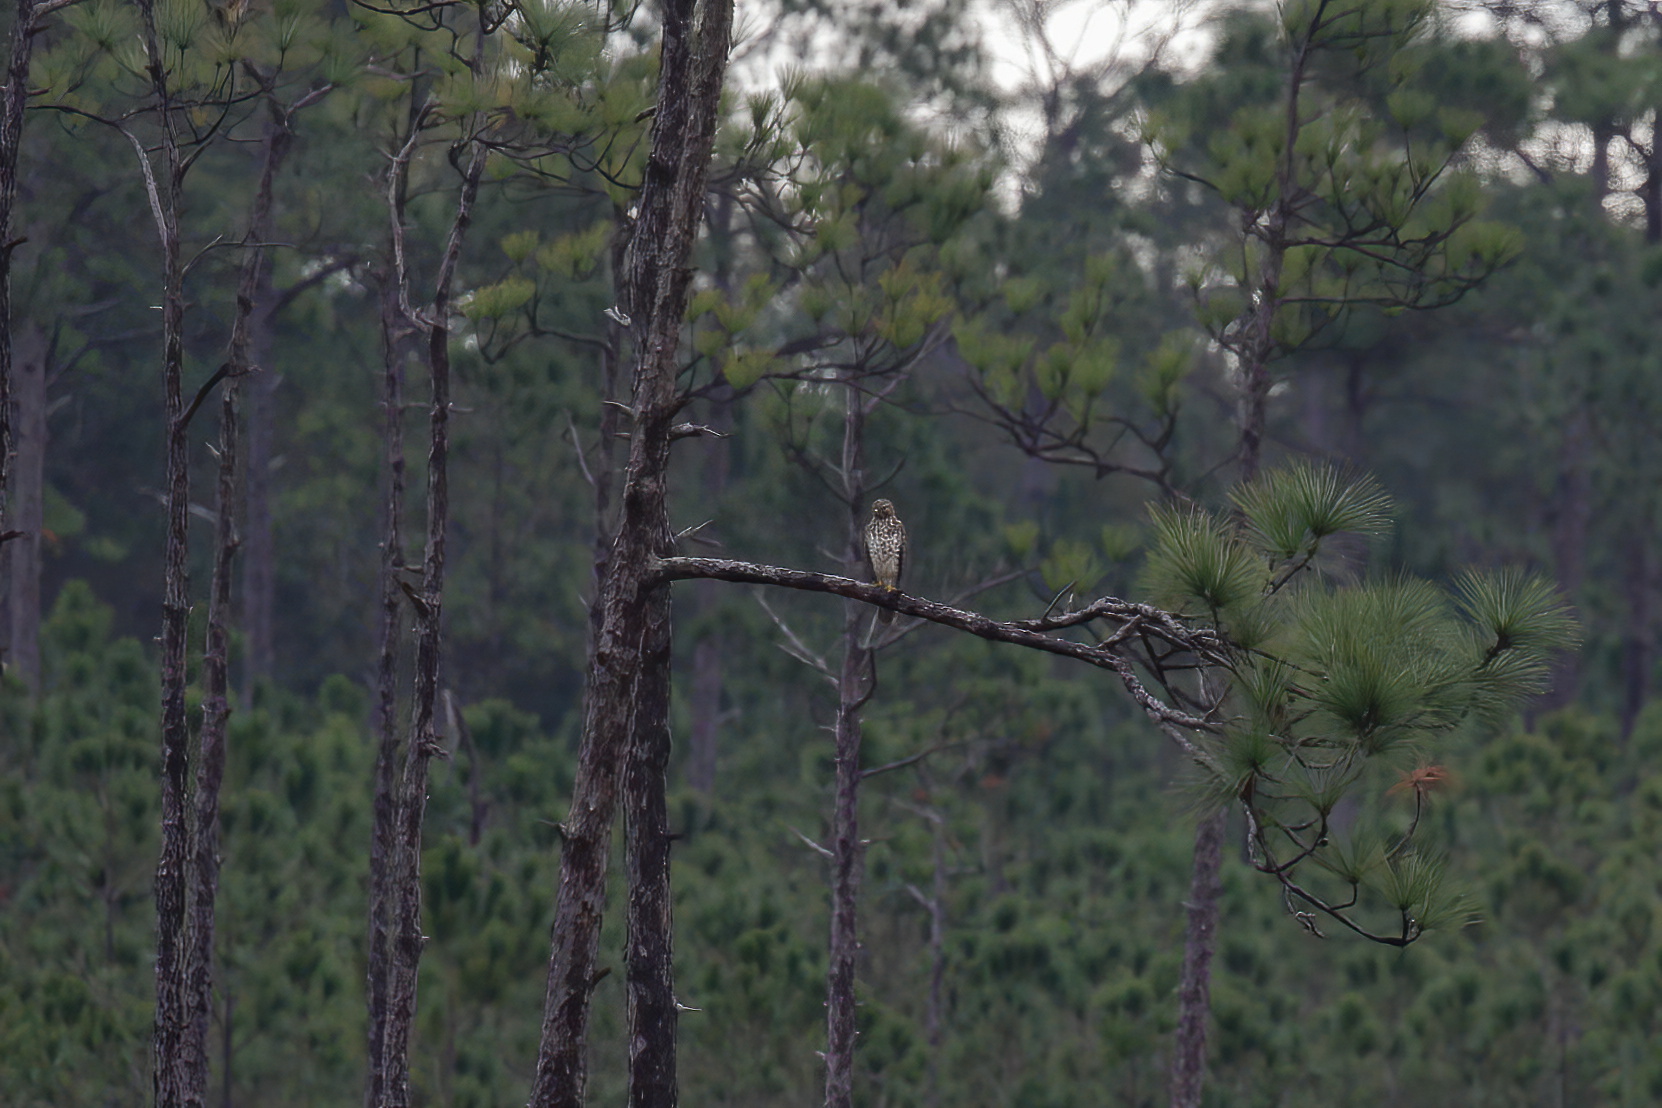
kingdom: Animalia
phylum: Chordata
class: Aves
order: Accipitriformes
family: Accipitridae
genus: Buteo
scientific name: Buteo lineatus
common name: Red-shouldered hawk
